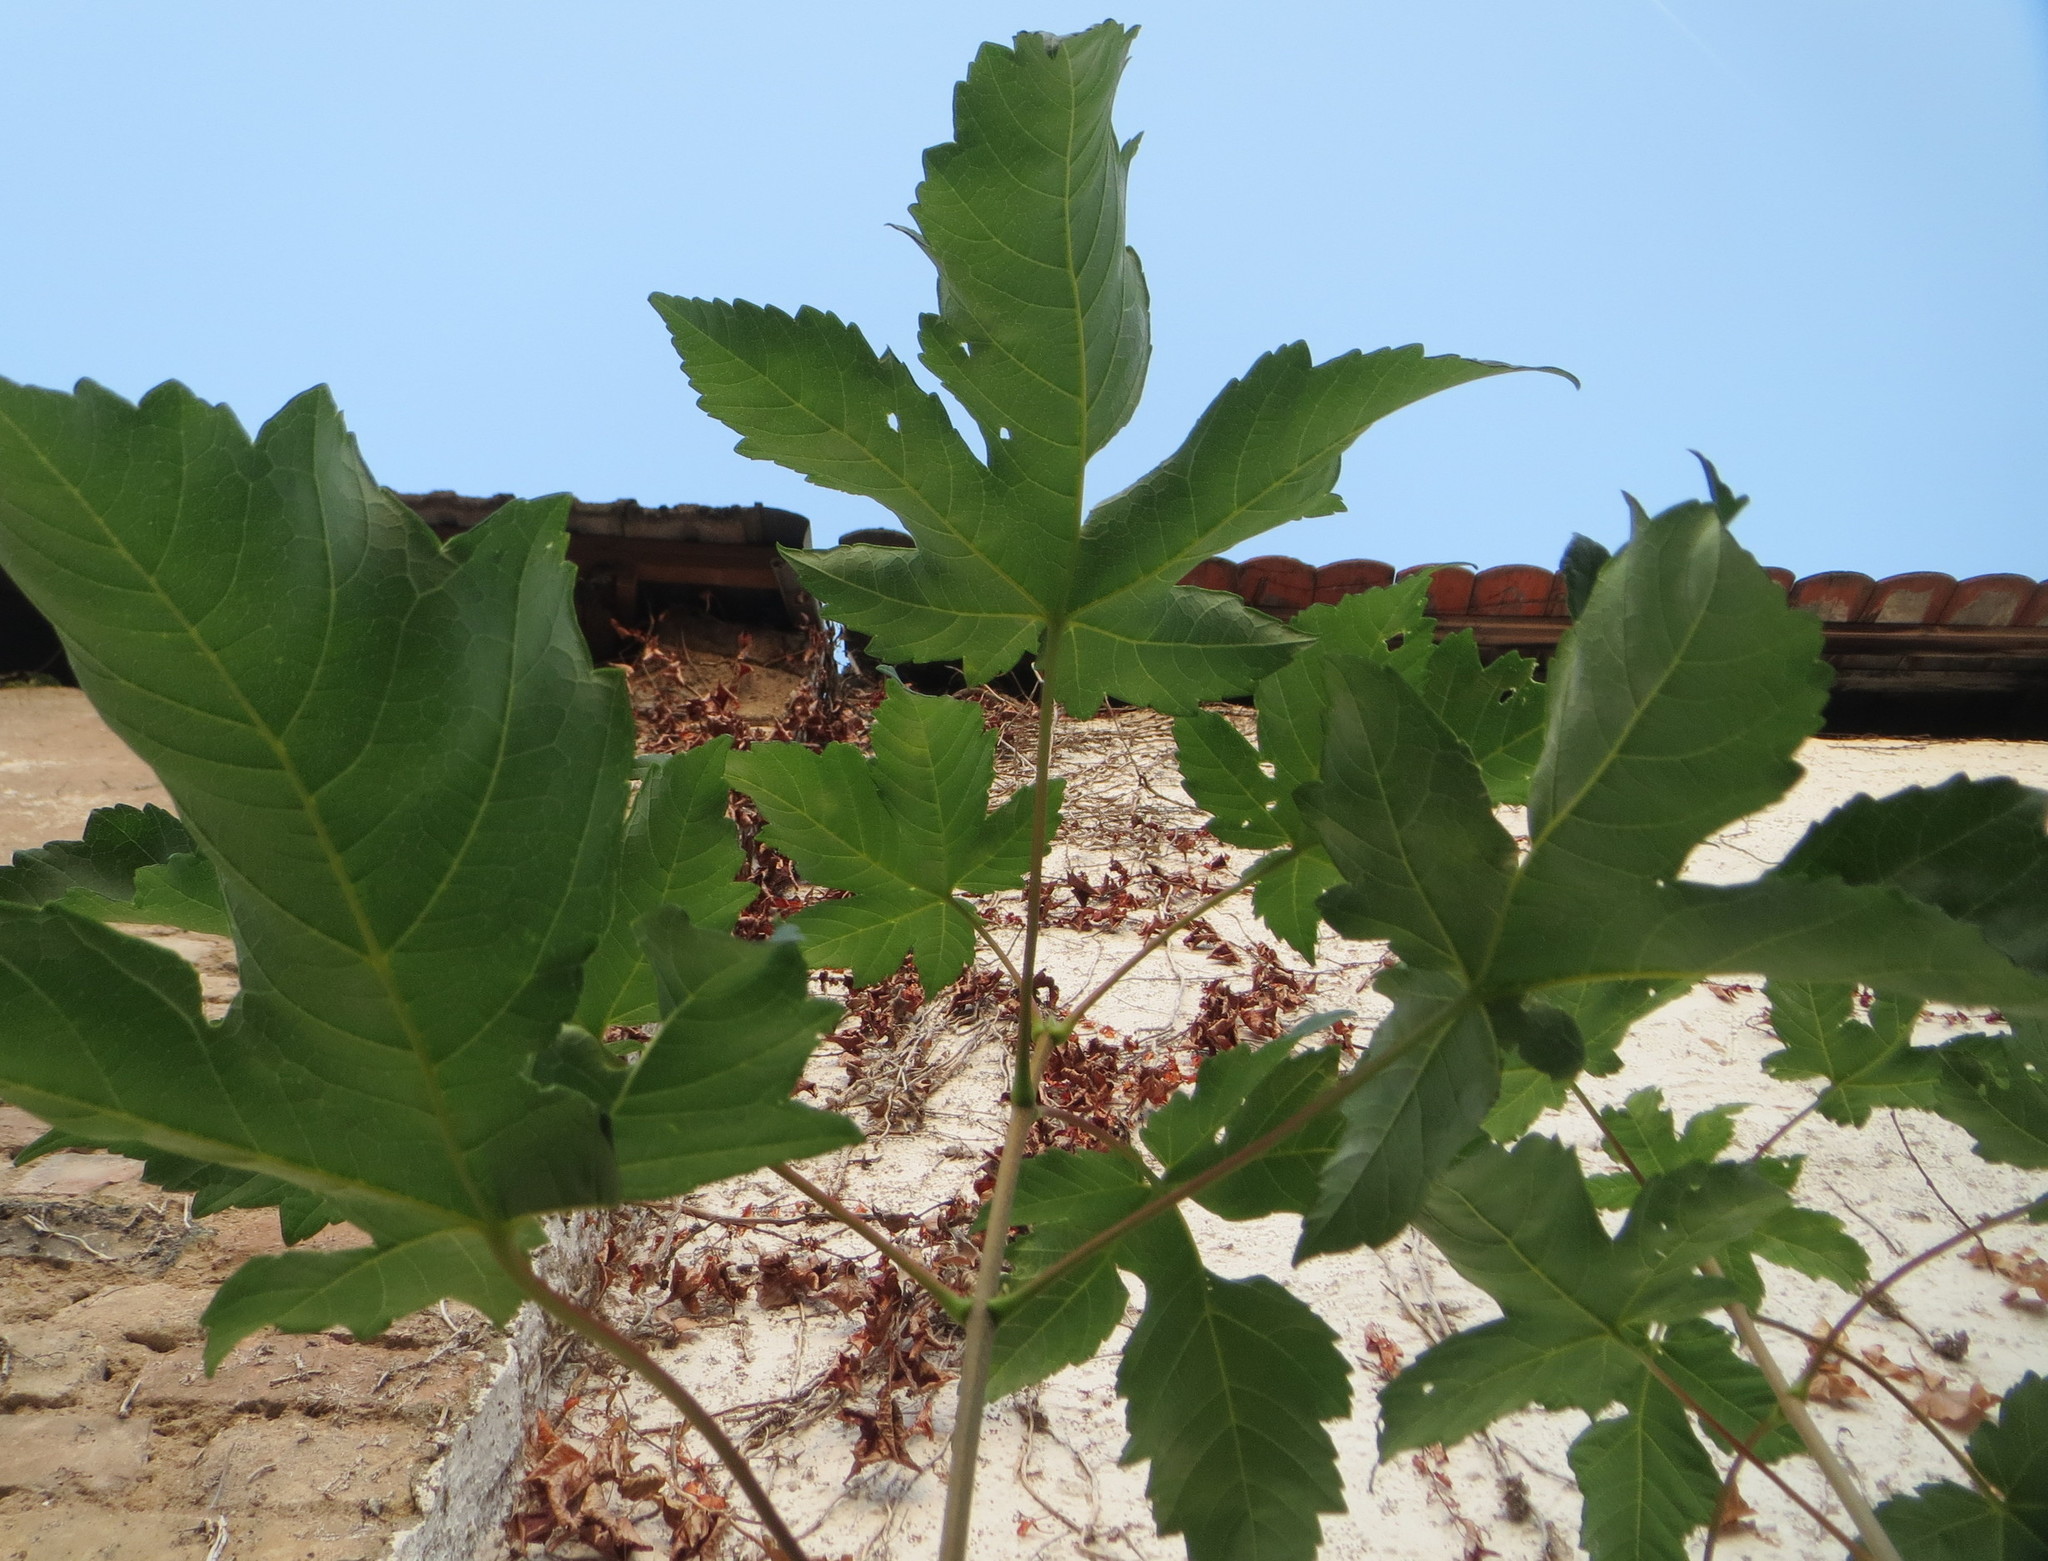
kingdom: Plantae
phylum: Tracheophyta
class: Magnoliopsida
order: Sapindales
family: Sapindaceae
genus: Acer
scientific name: Acer pseudoplatanus
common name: Sycamore
